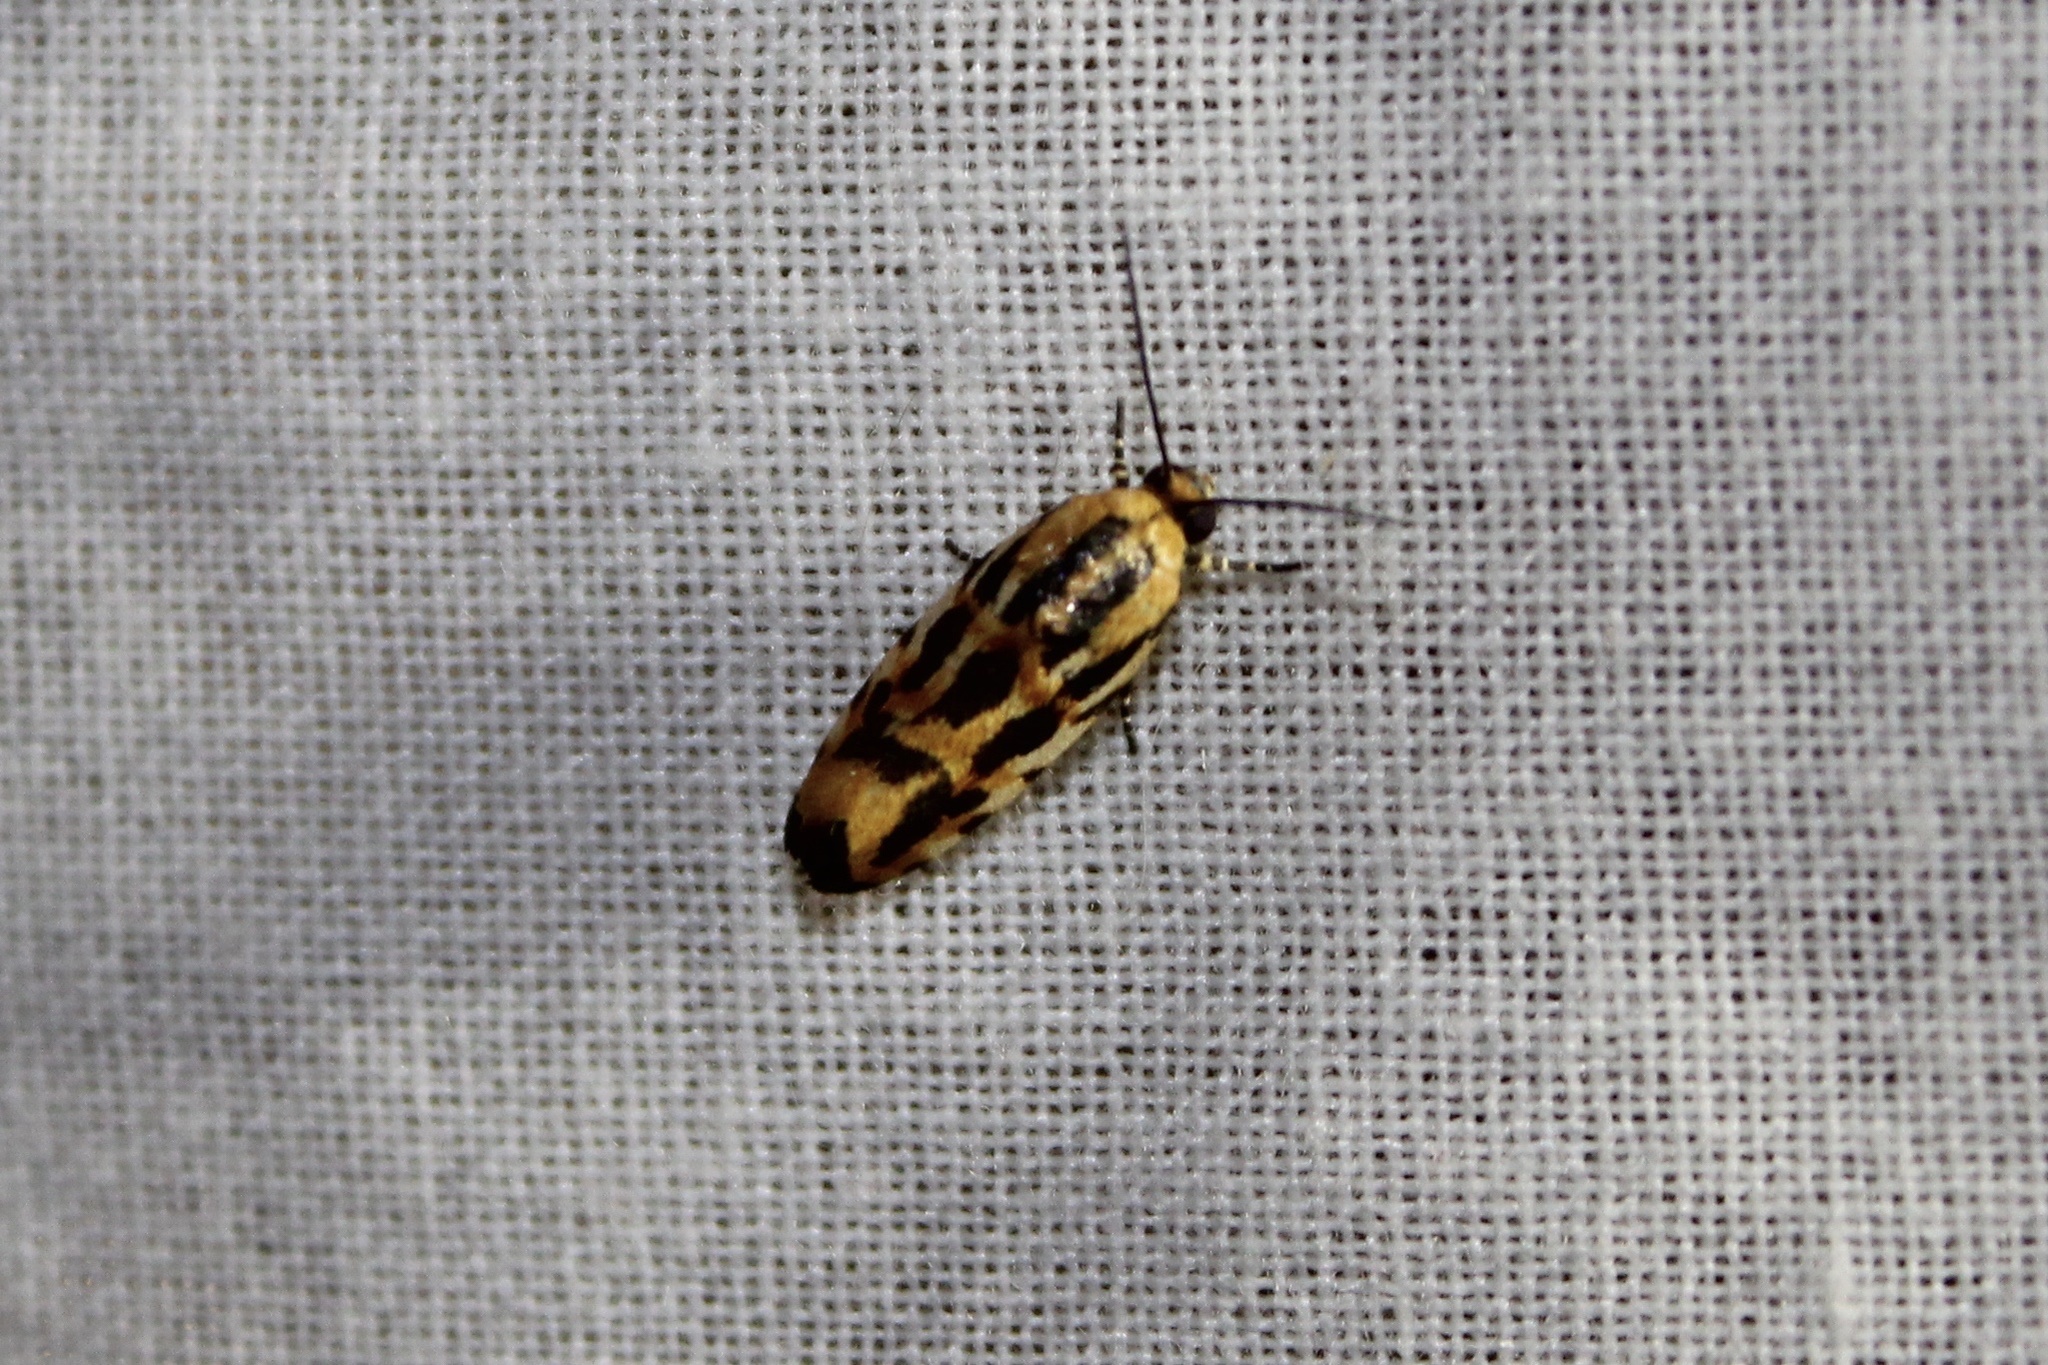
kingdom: Animalia
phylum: Arthropoda
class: Insecta
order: Lepidoptera
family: Noctuidae
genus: Acontia
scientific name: Acontia leo
